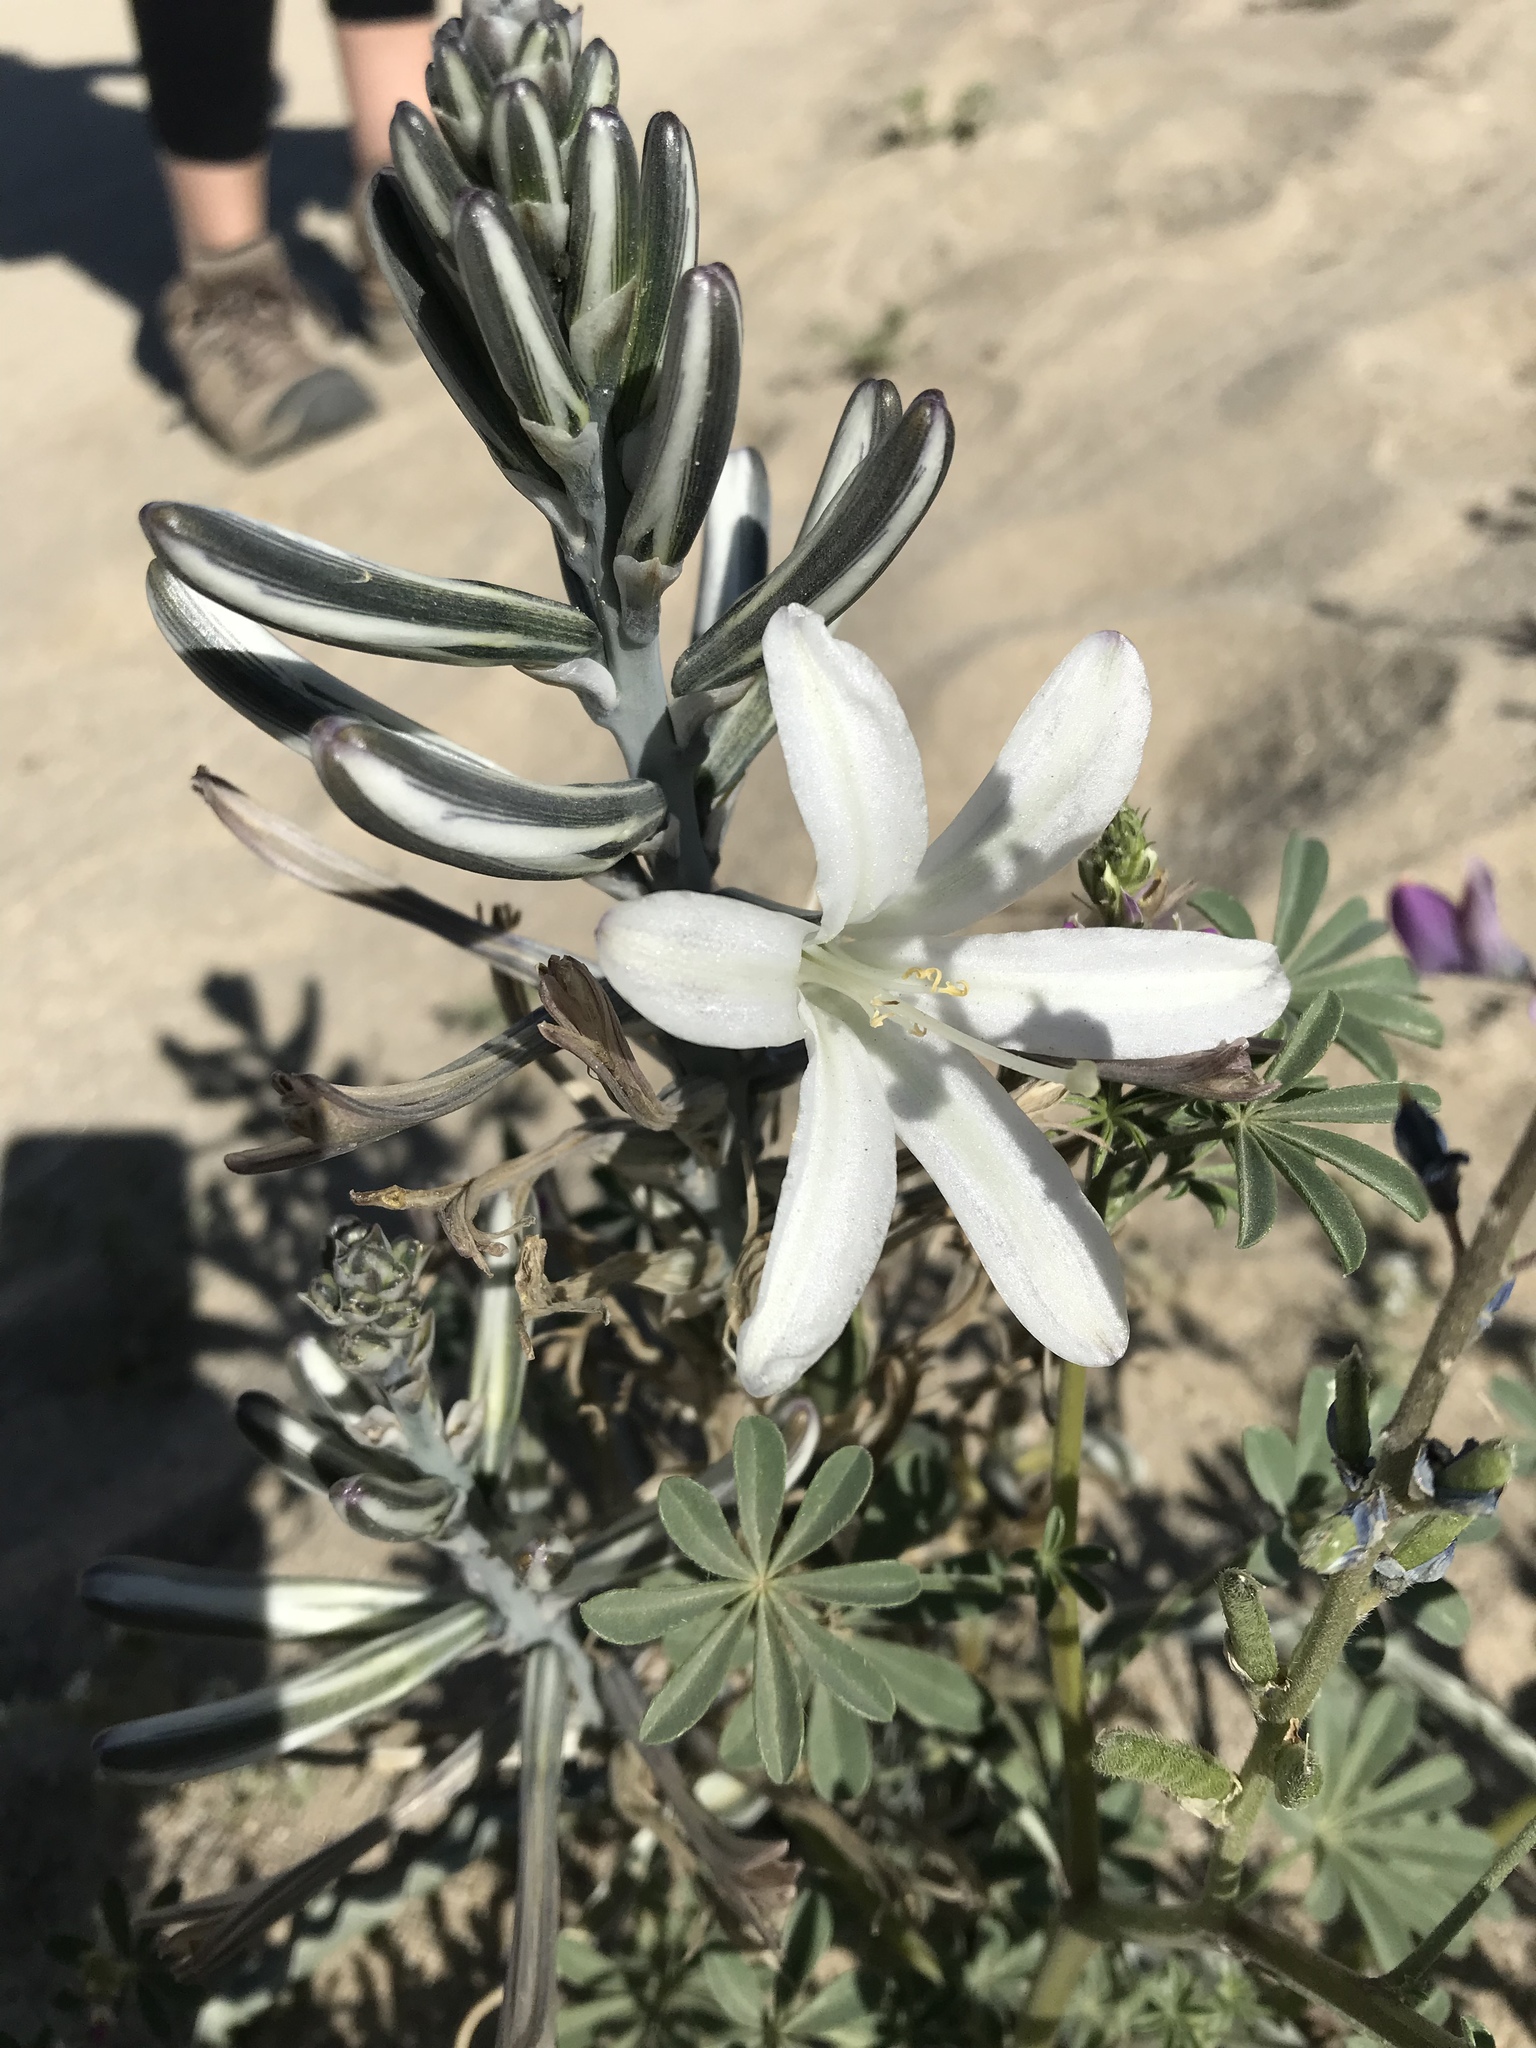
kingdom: Plantae
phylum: Tracheophyta
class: Liliopsida
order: Asparagales
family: Asparagaceae
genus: Hesperocallis
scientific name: Hesperocallis undulata
